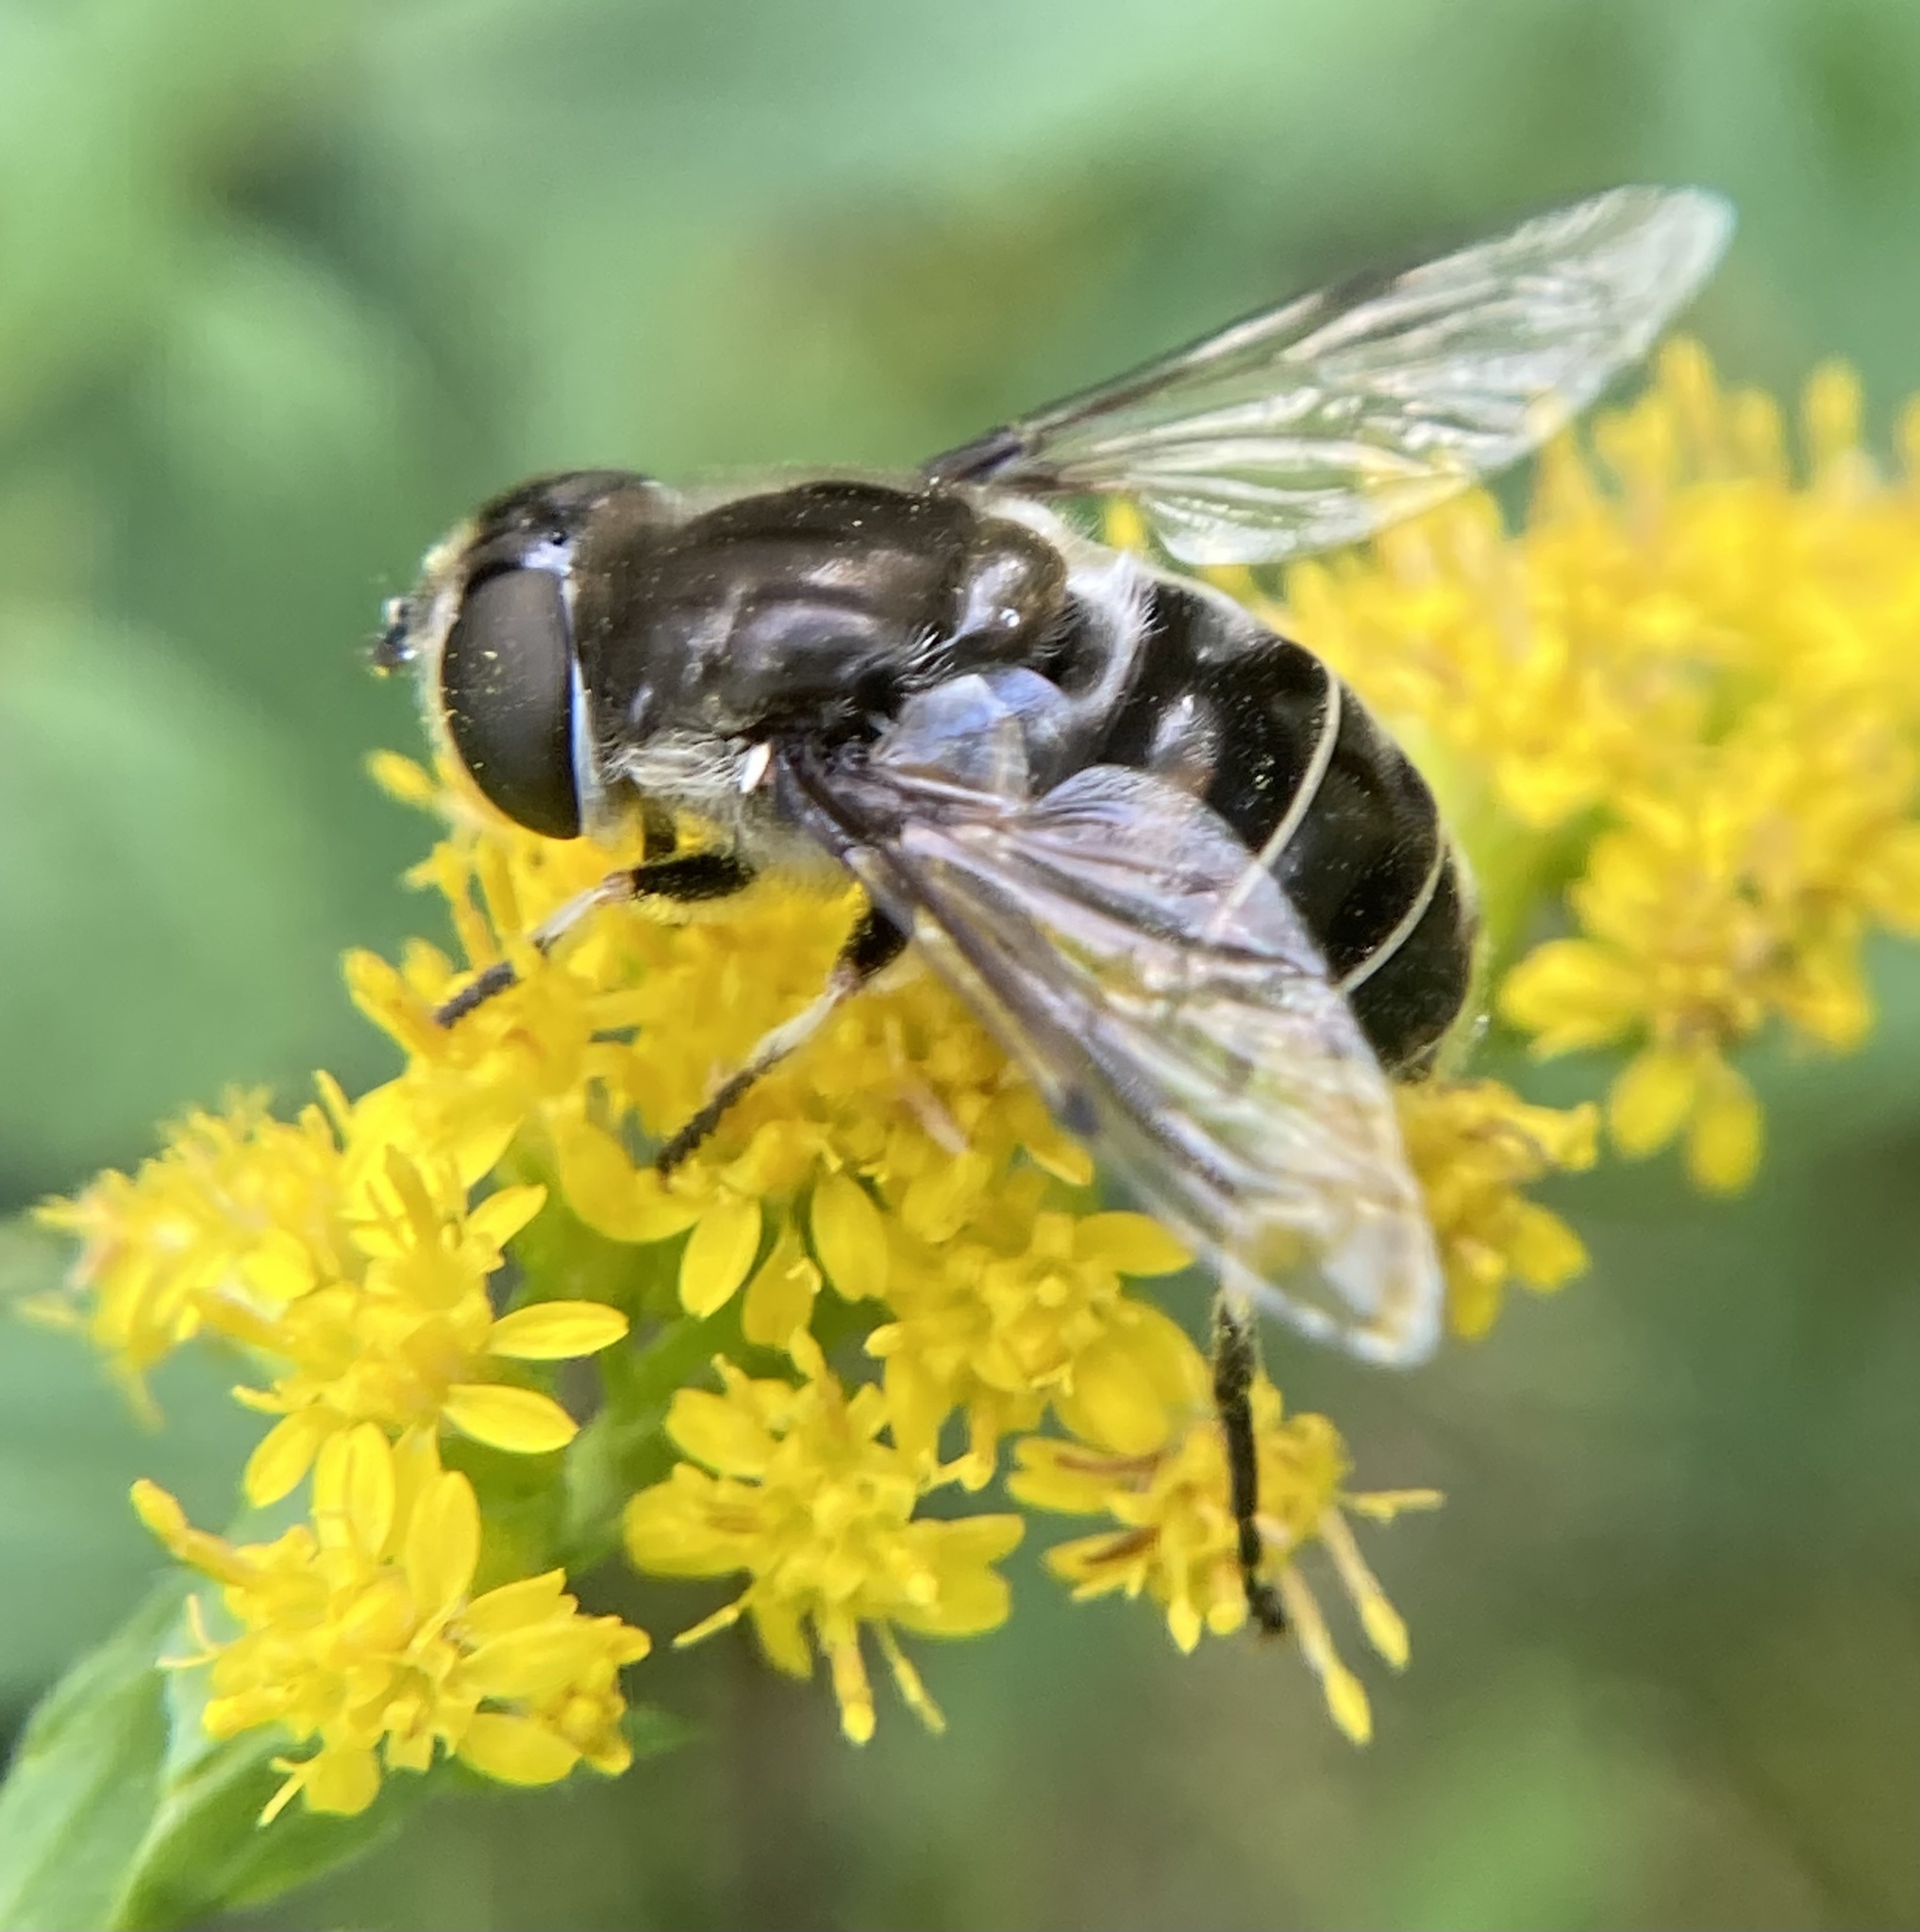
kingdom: Animalia
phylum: Arthropoda
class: Insecta
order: Diptera
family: Syrphidae
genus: Eristalis
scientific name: Eristalis dimidiata
